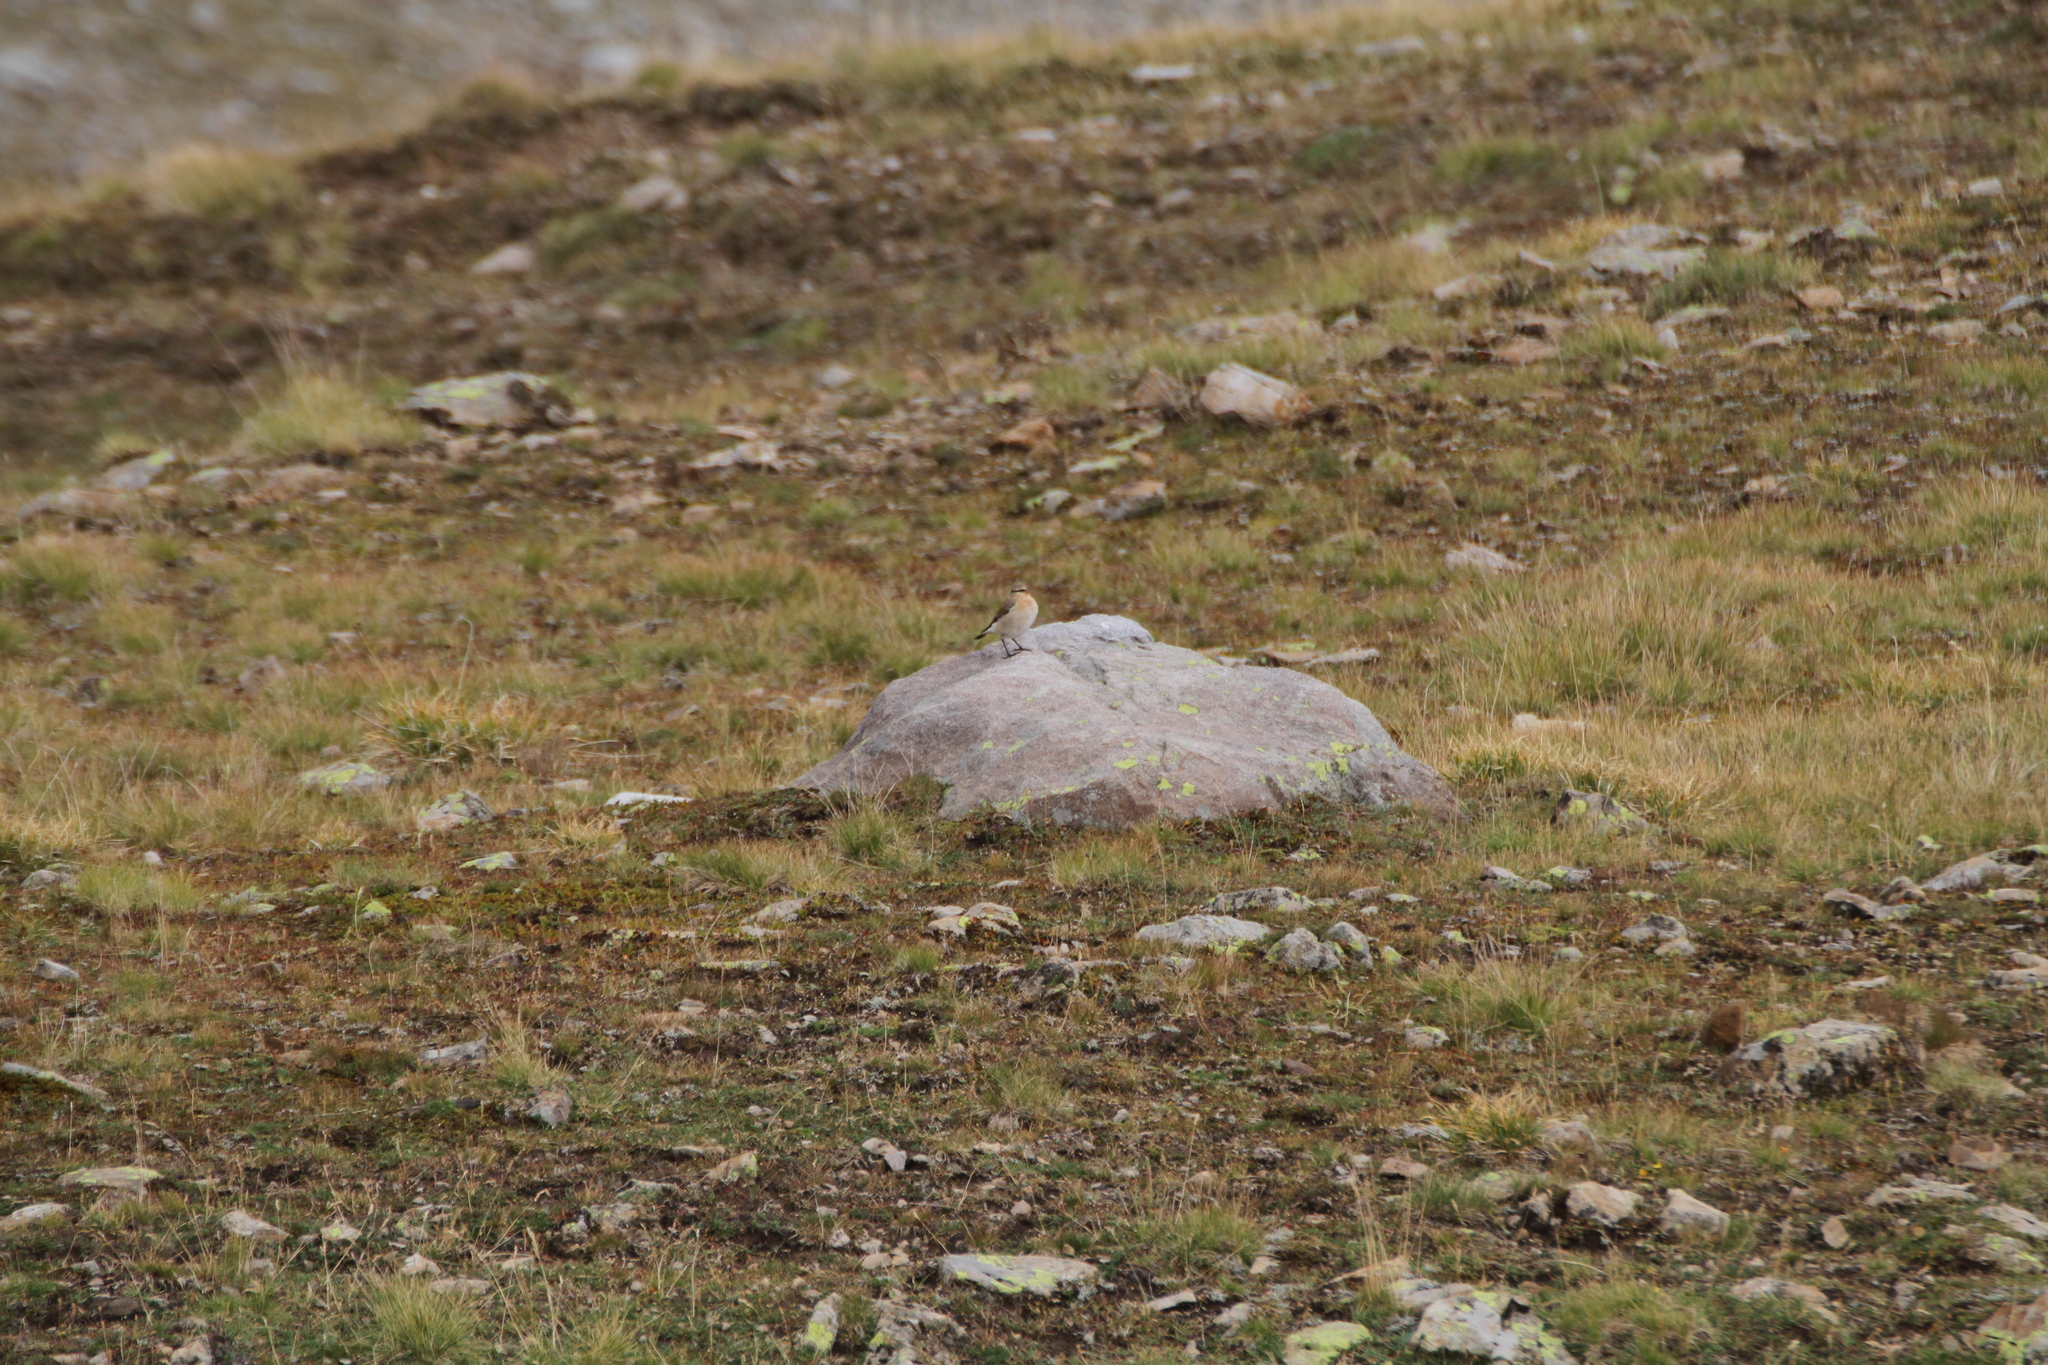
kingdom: Animalia
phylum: Chordata
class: Aves
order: Passeriformes
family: Muscicapidae
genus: Oenanthe
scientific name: Oenanthe oenanthe
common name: Northern wheatear
